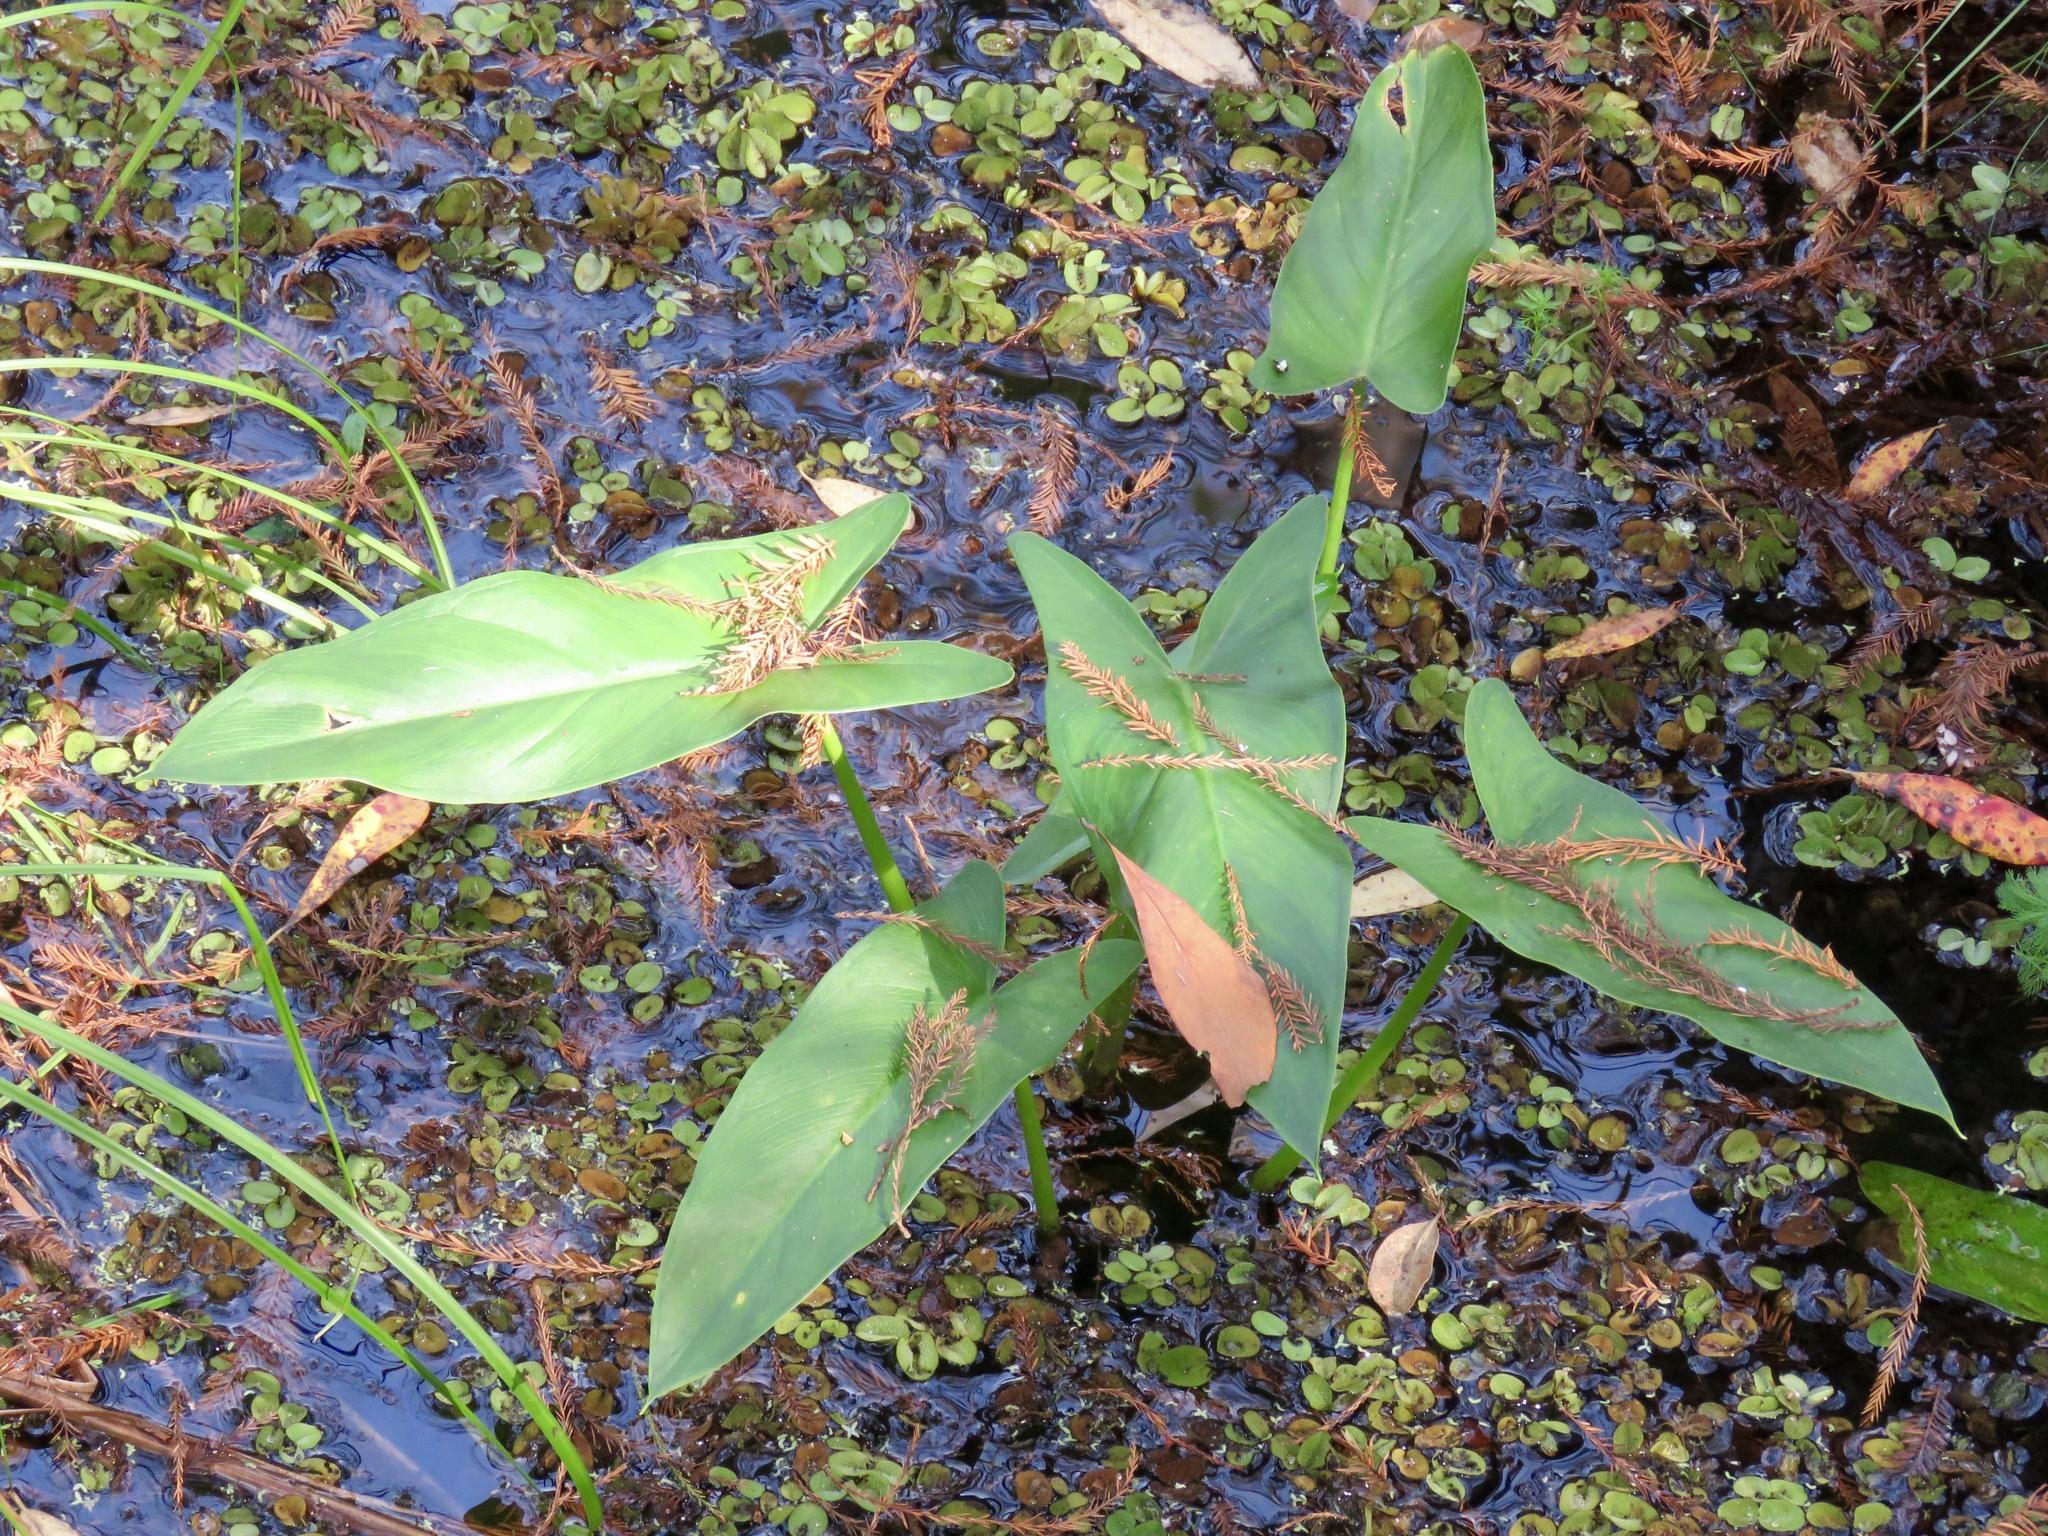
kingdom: Plantae
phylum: Tracheophyta
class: Liliopsida
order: Alismatales
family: Araceae
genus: Peltandra
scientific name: Peltandra virginica
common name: Arrow arum
